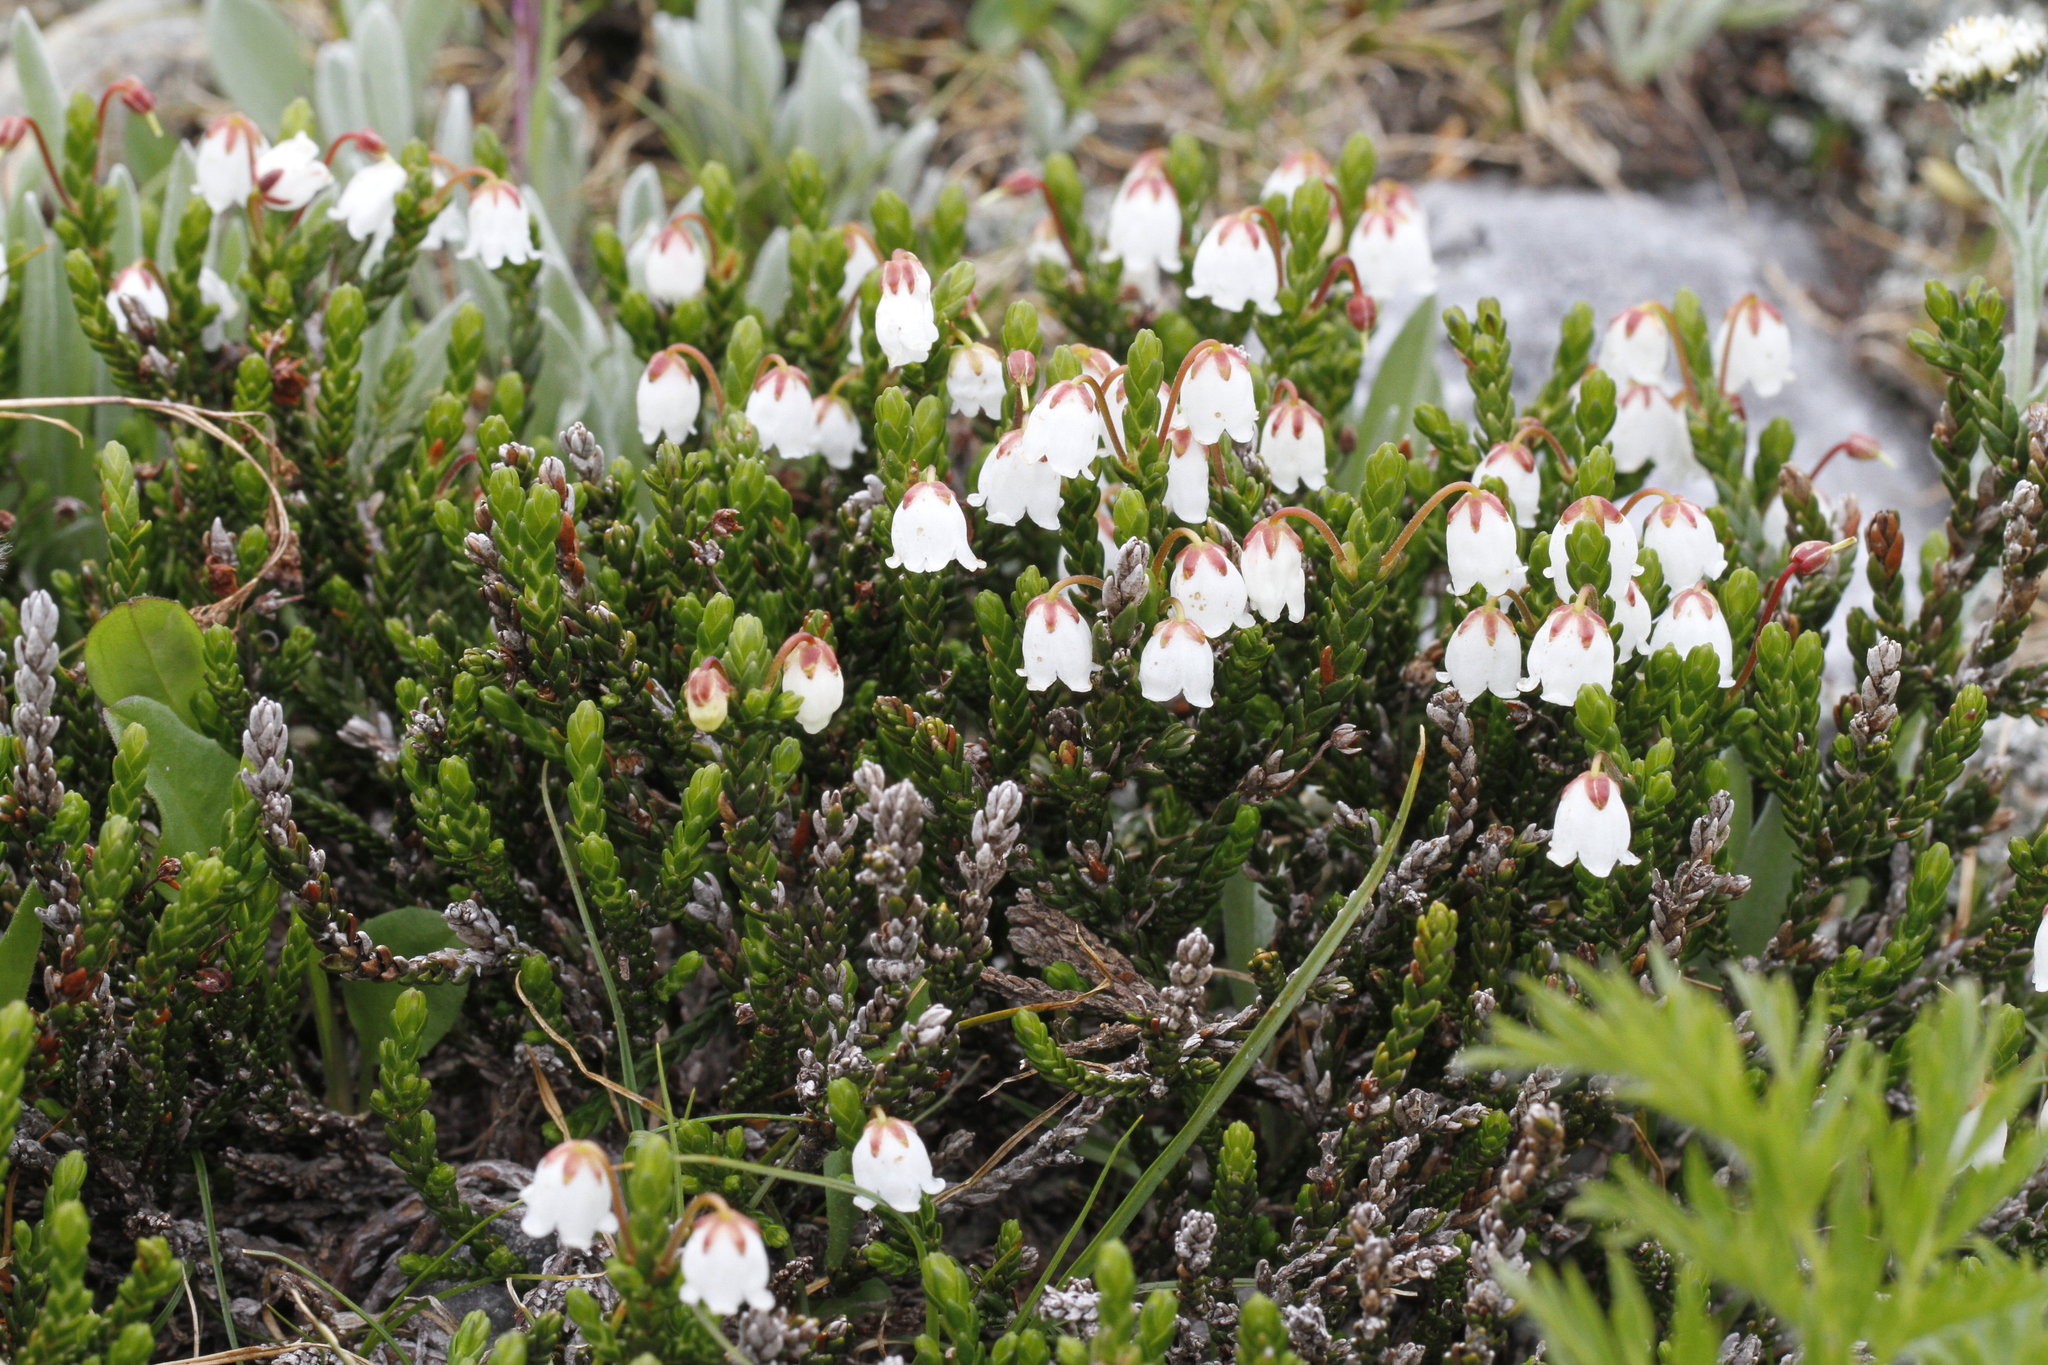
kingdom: Plantae
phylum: Tracheophyta
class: Magnoliopsida
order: Ericales
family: Ericaceae
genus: Cassiope
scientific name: Cassiope mertensiana
